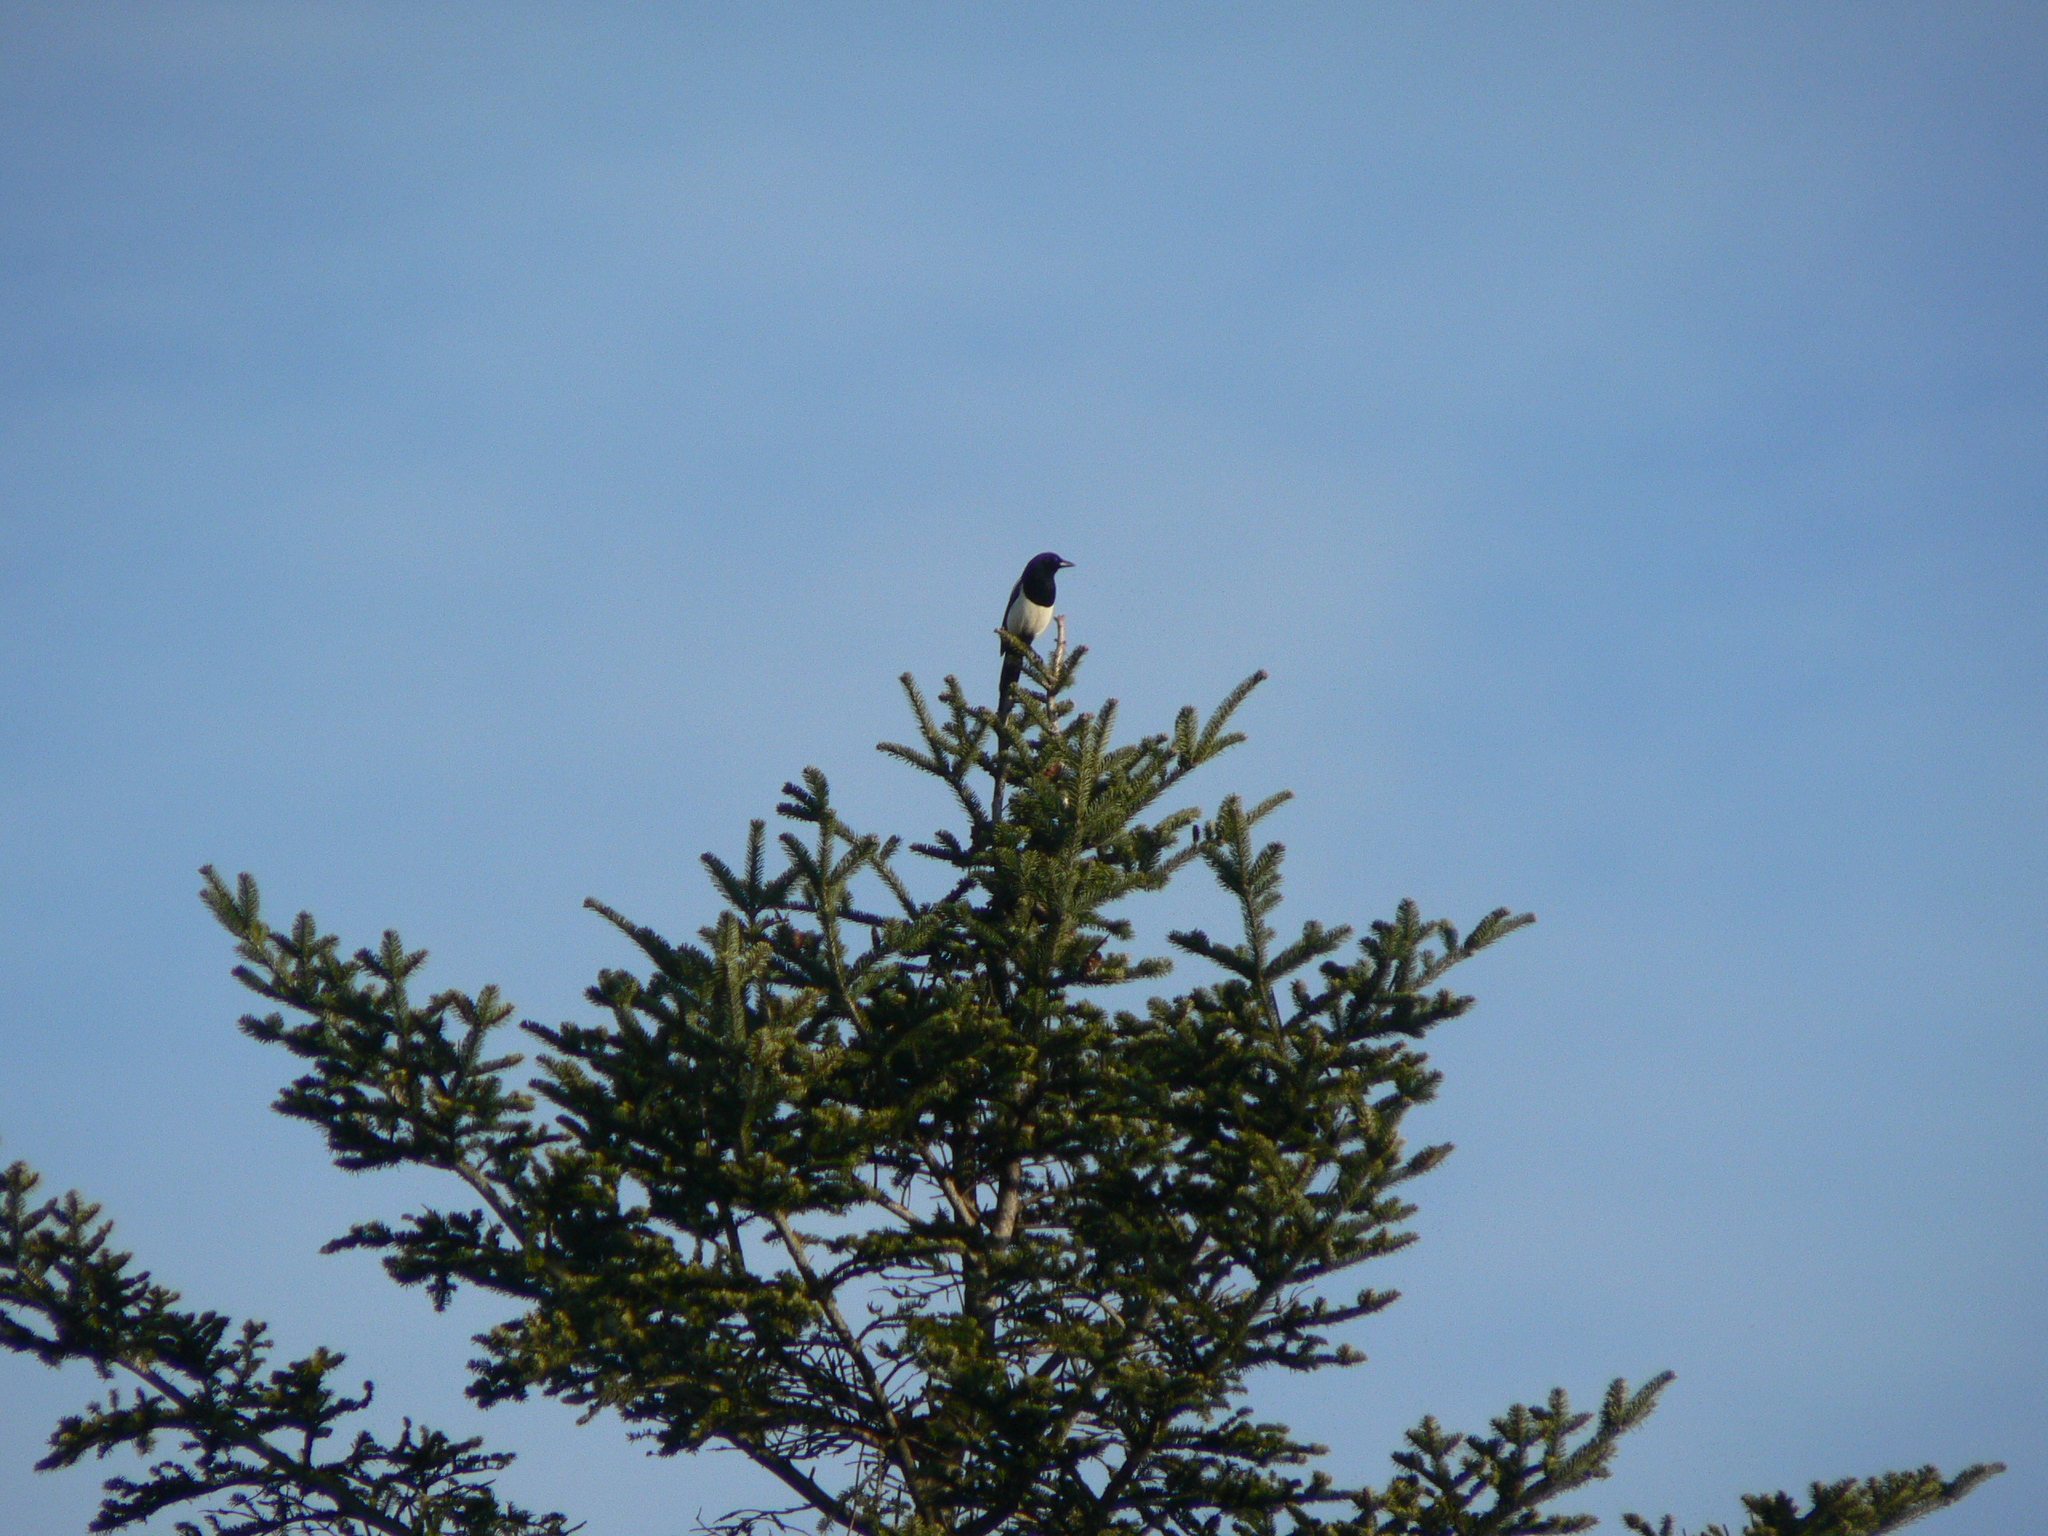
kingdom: Animalia
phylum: Chordata
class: Aves
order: Passeriformes
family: Corvidae
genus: Pica
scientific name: Pica pica
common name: Eurasian magpie
